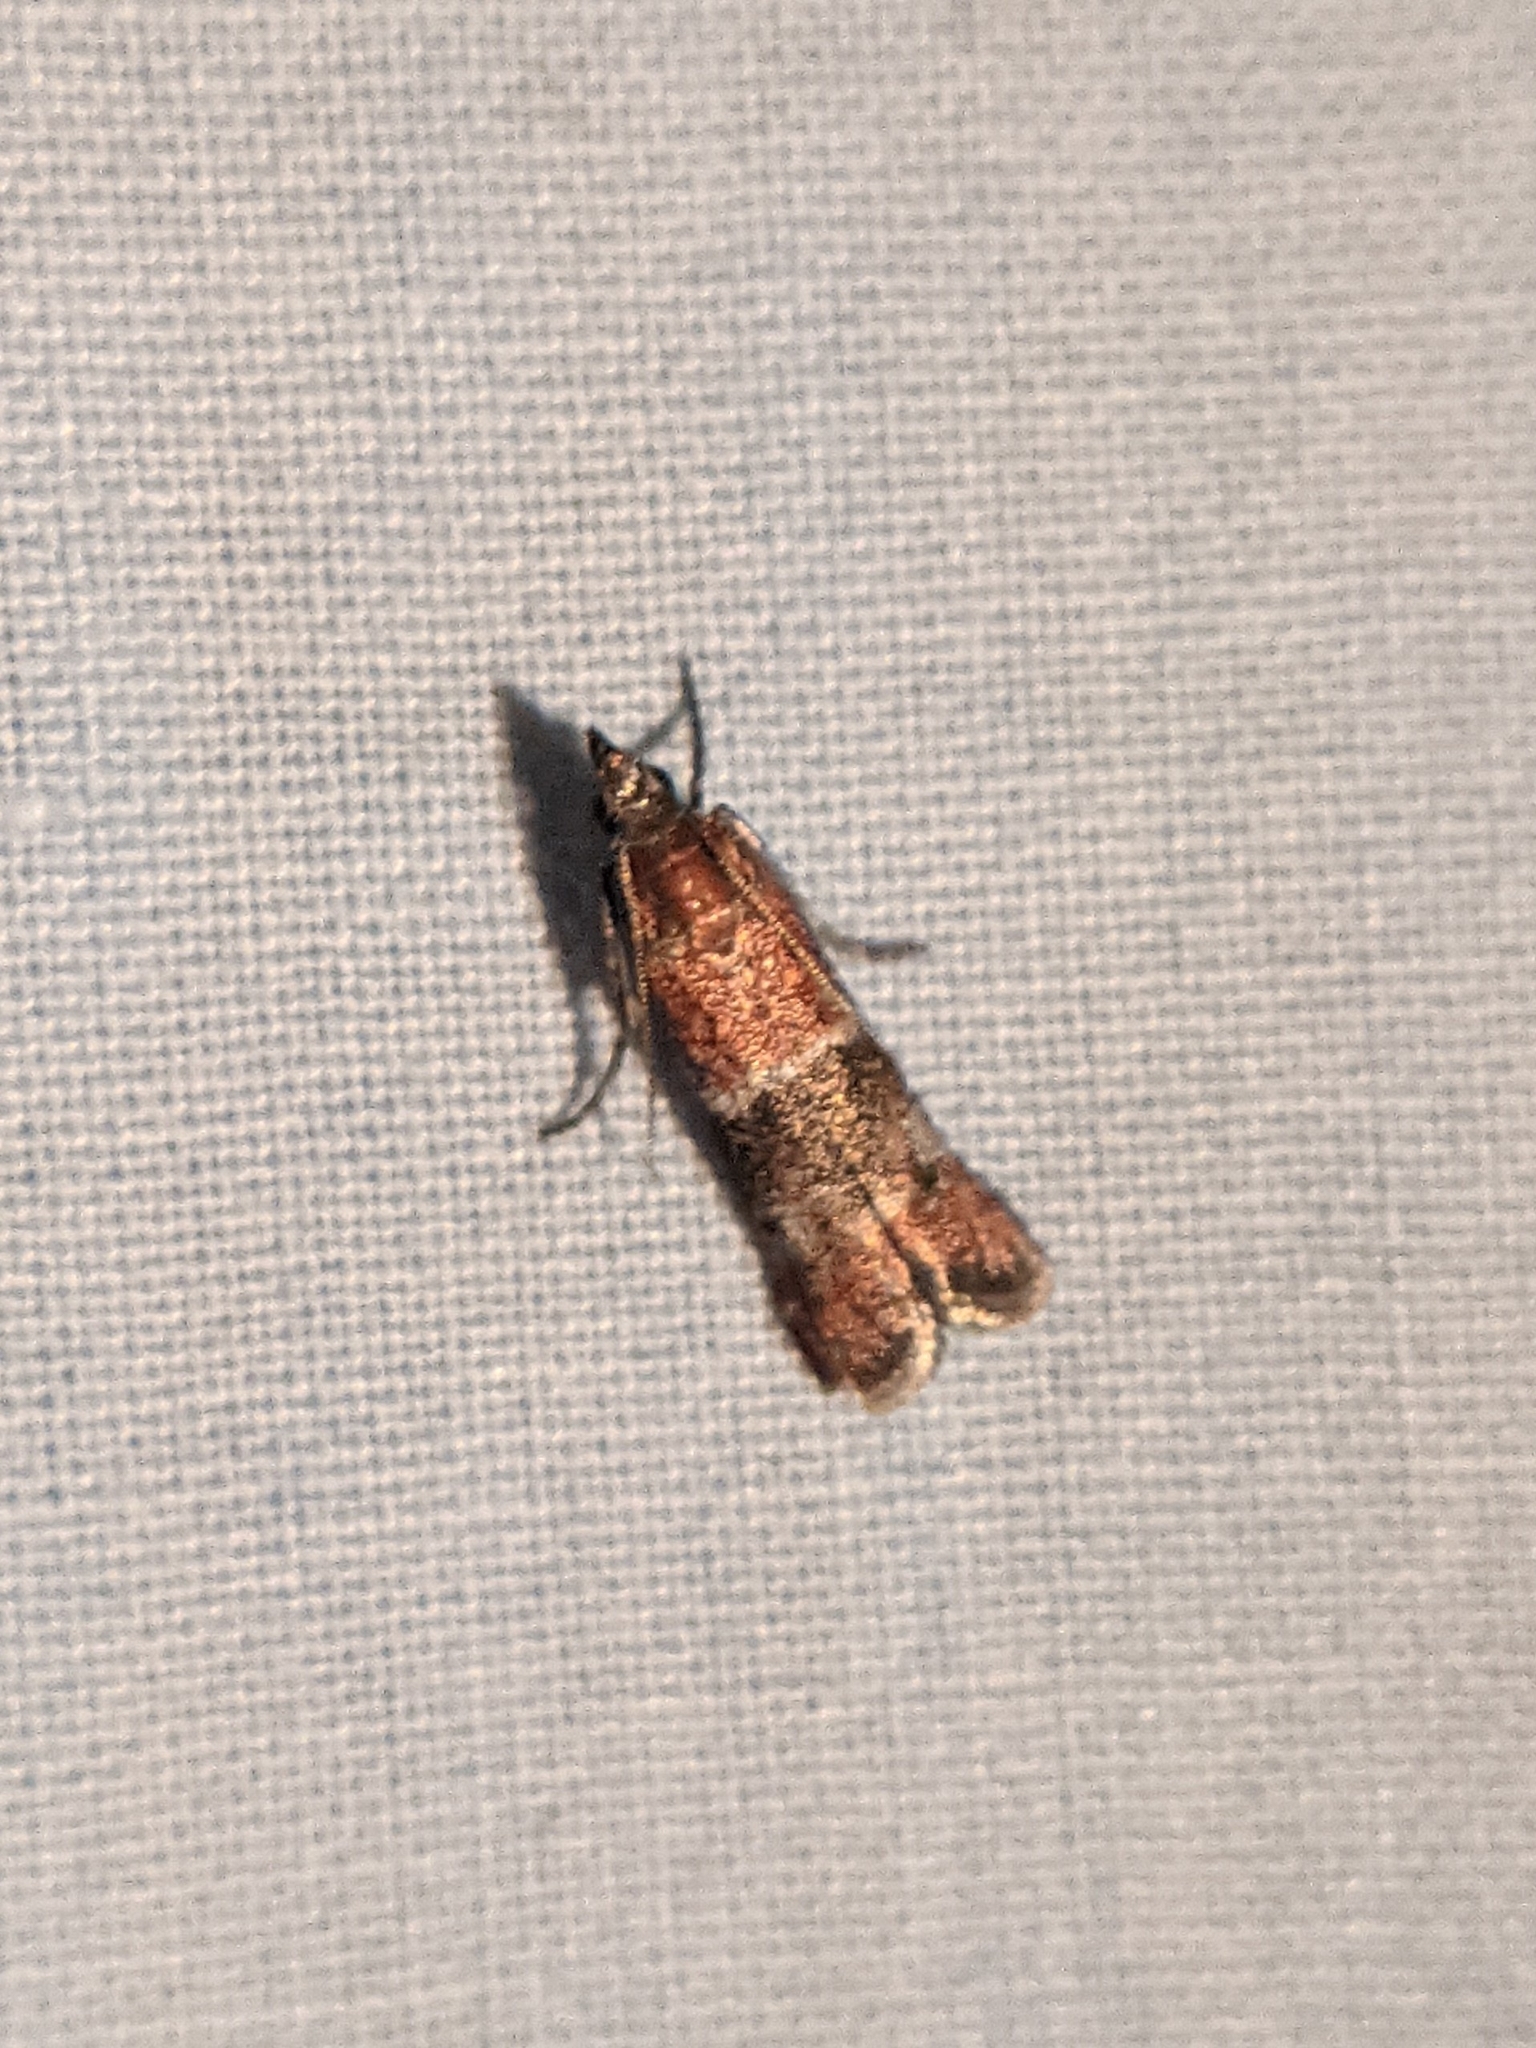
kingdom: Animalia
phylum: Arthropoda
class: Insecta
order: Lepidoptera
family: Pyralidae
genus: Moodna
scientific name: Moodna ostrinella
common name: Darker moodna moth
